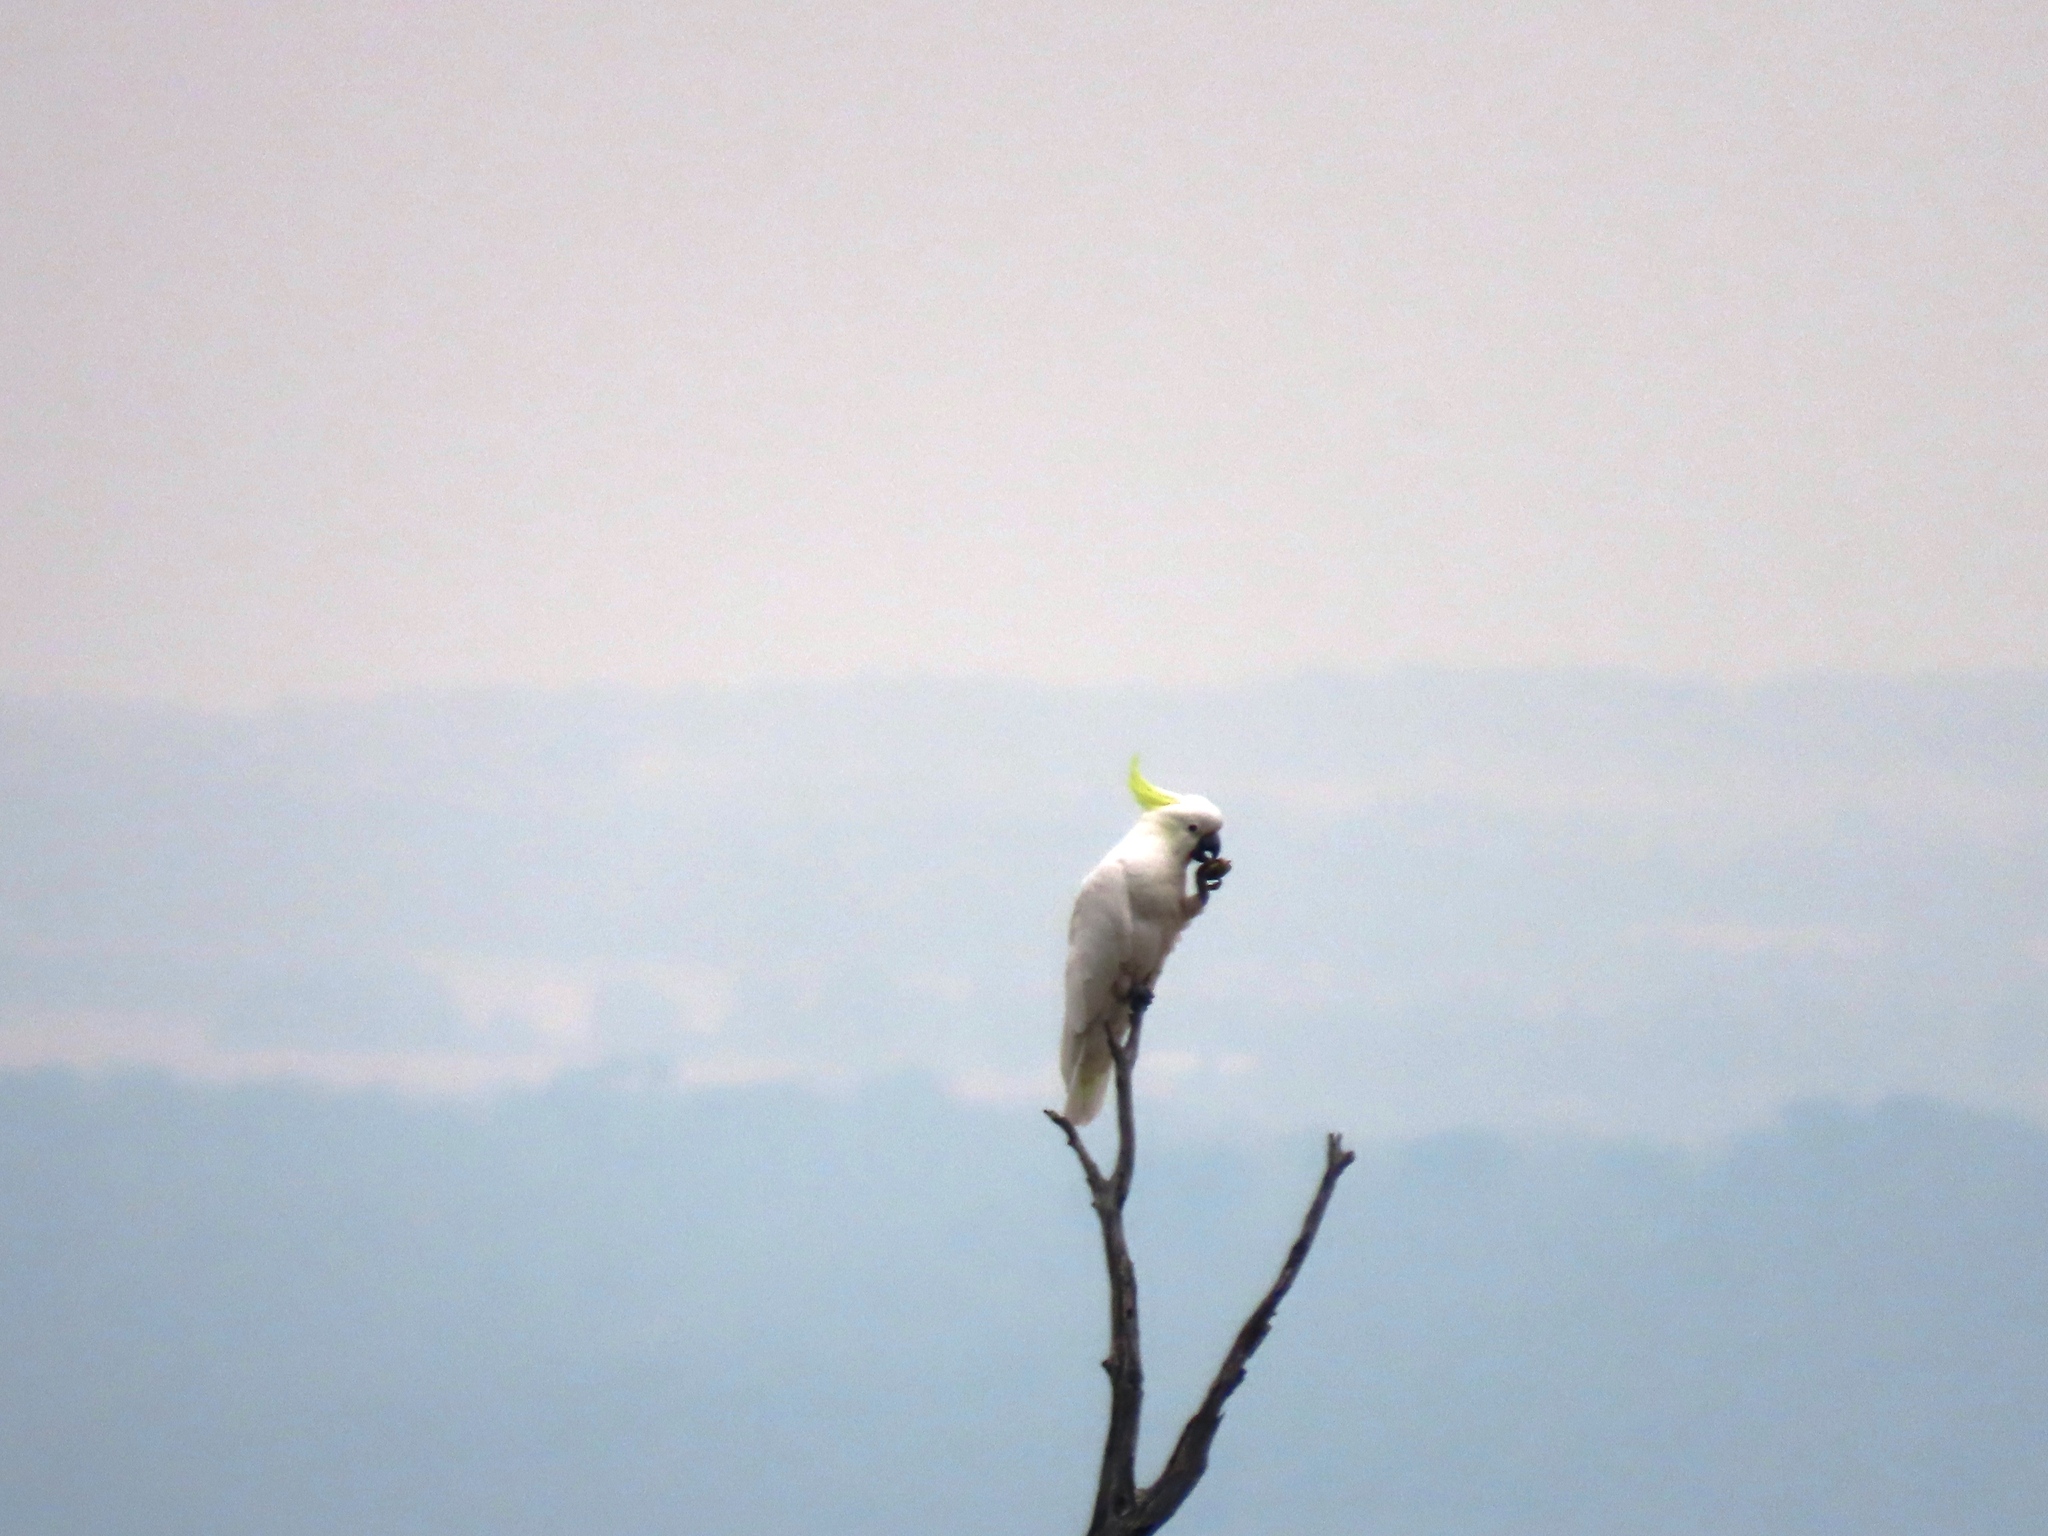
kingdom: Animalia
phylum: Chordata
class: Aves
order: Psittaciformes
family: Psittacidae
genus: Cacatua
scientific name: Cacatua galerita
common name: Sulphur-crested cockatoo
